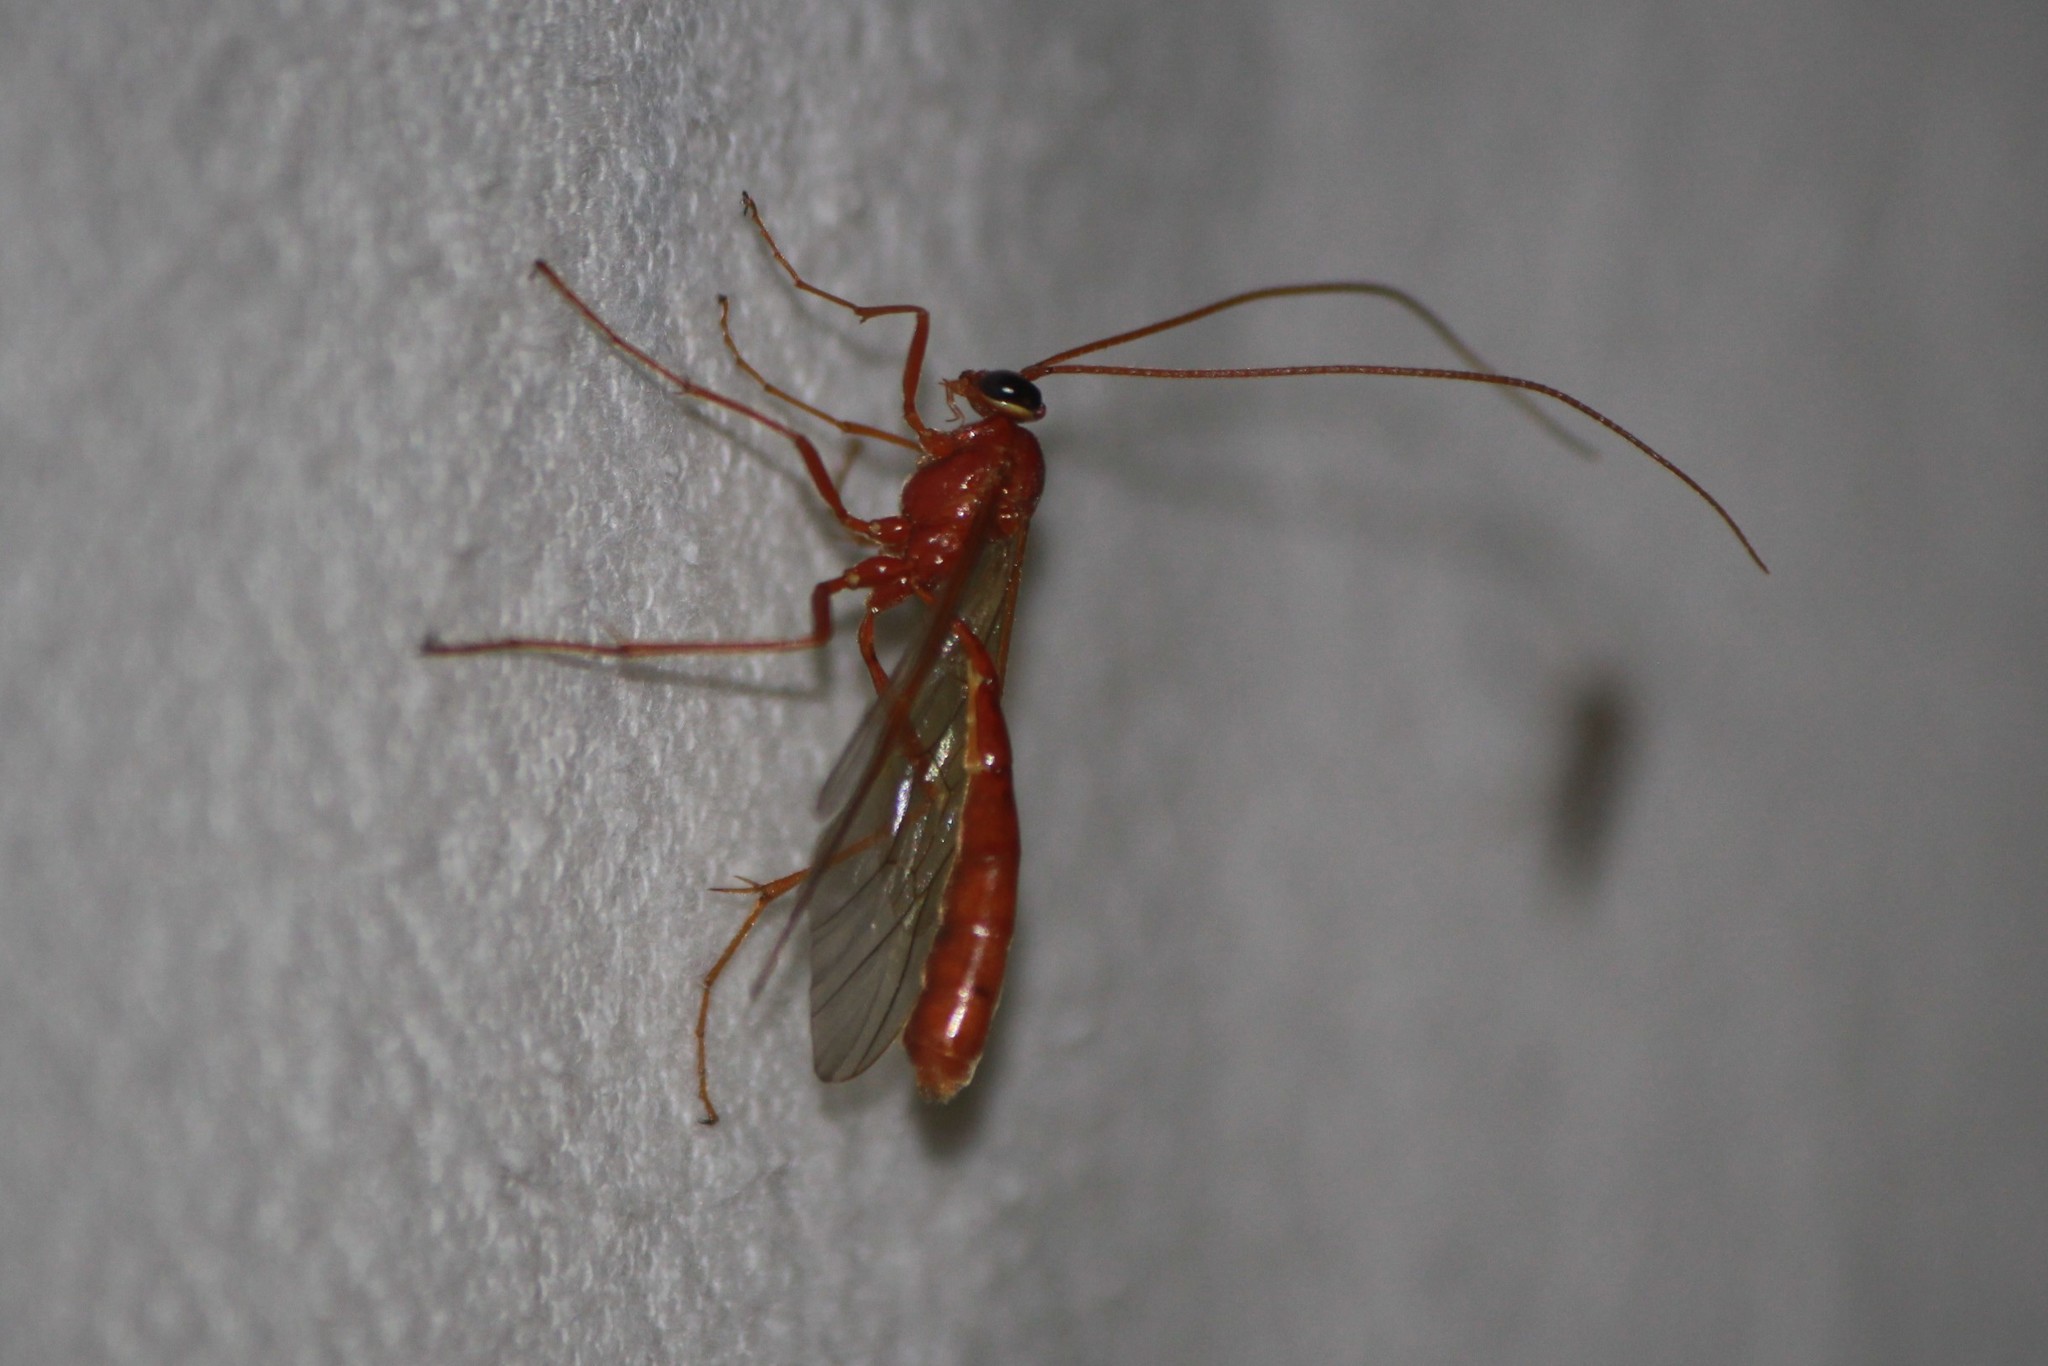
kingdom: Animalia
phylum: Arthropoda
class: Insecta
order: Hymenoptera
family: Ichneumonidae
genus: Ophion
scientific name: Ophion
